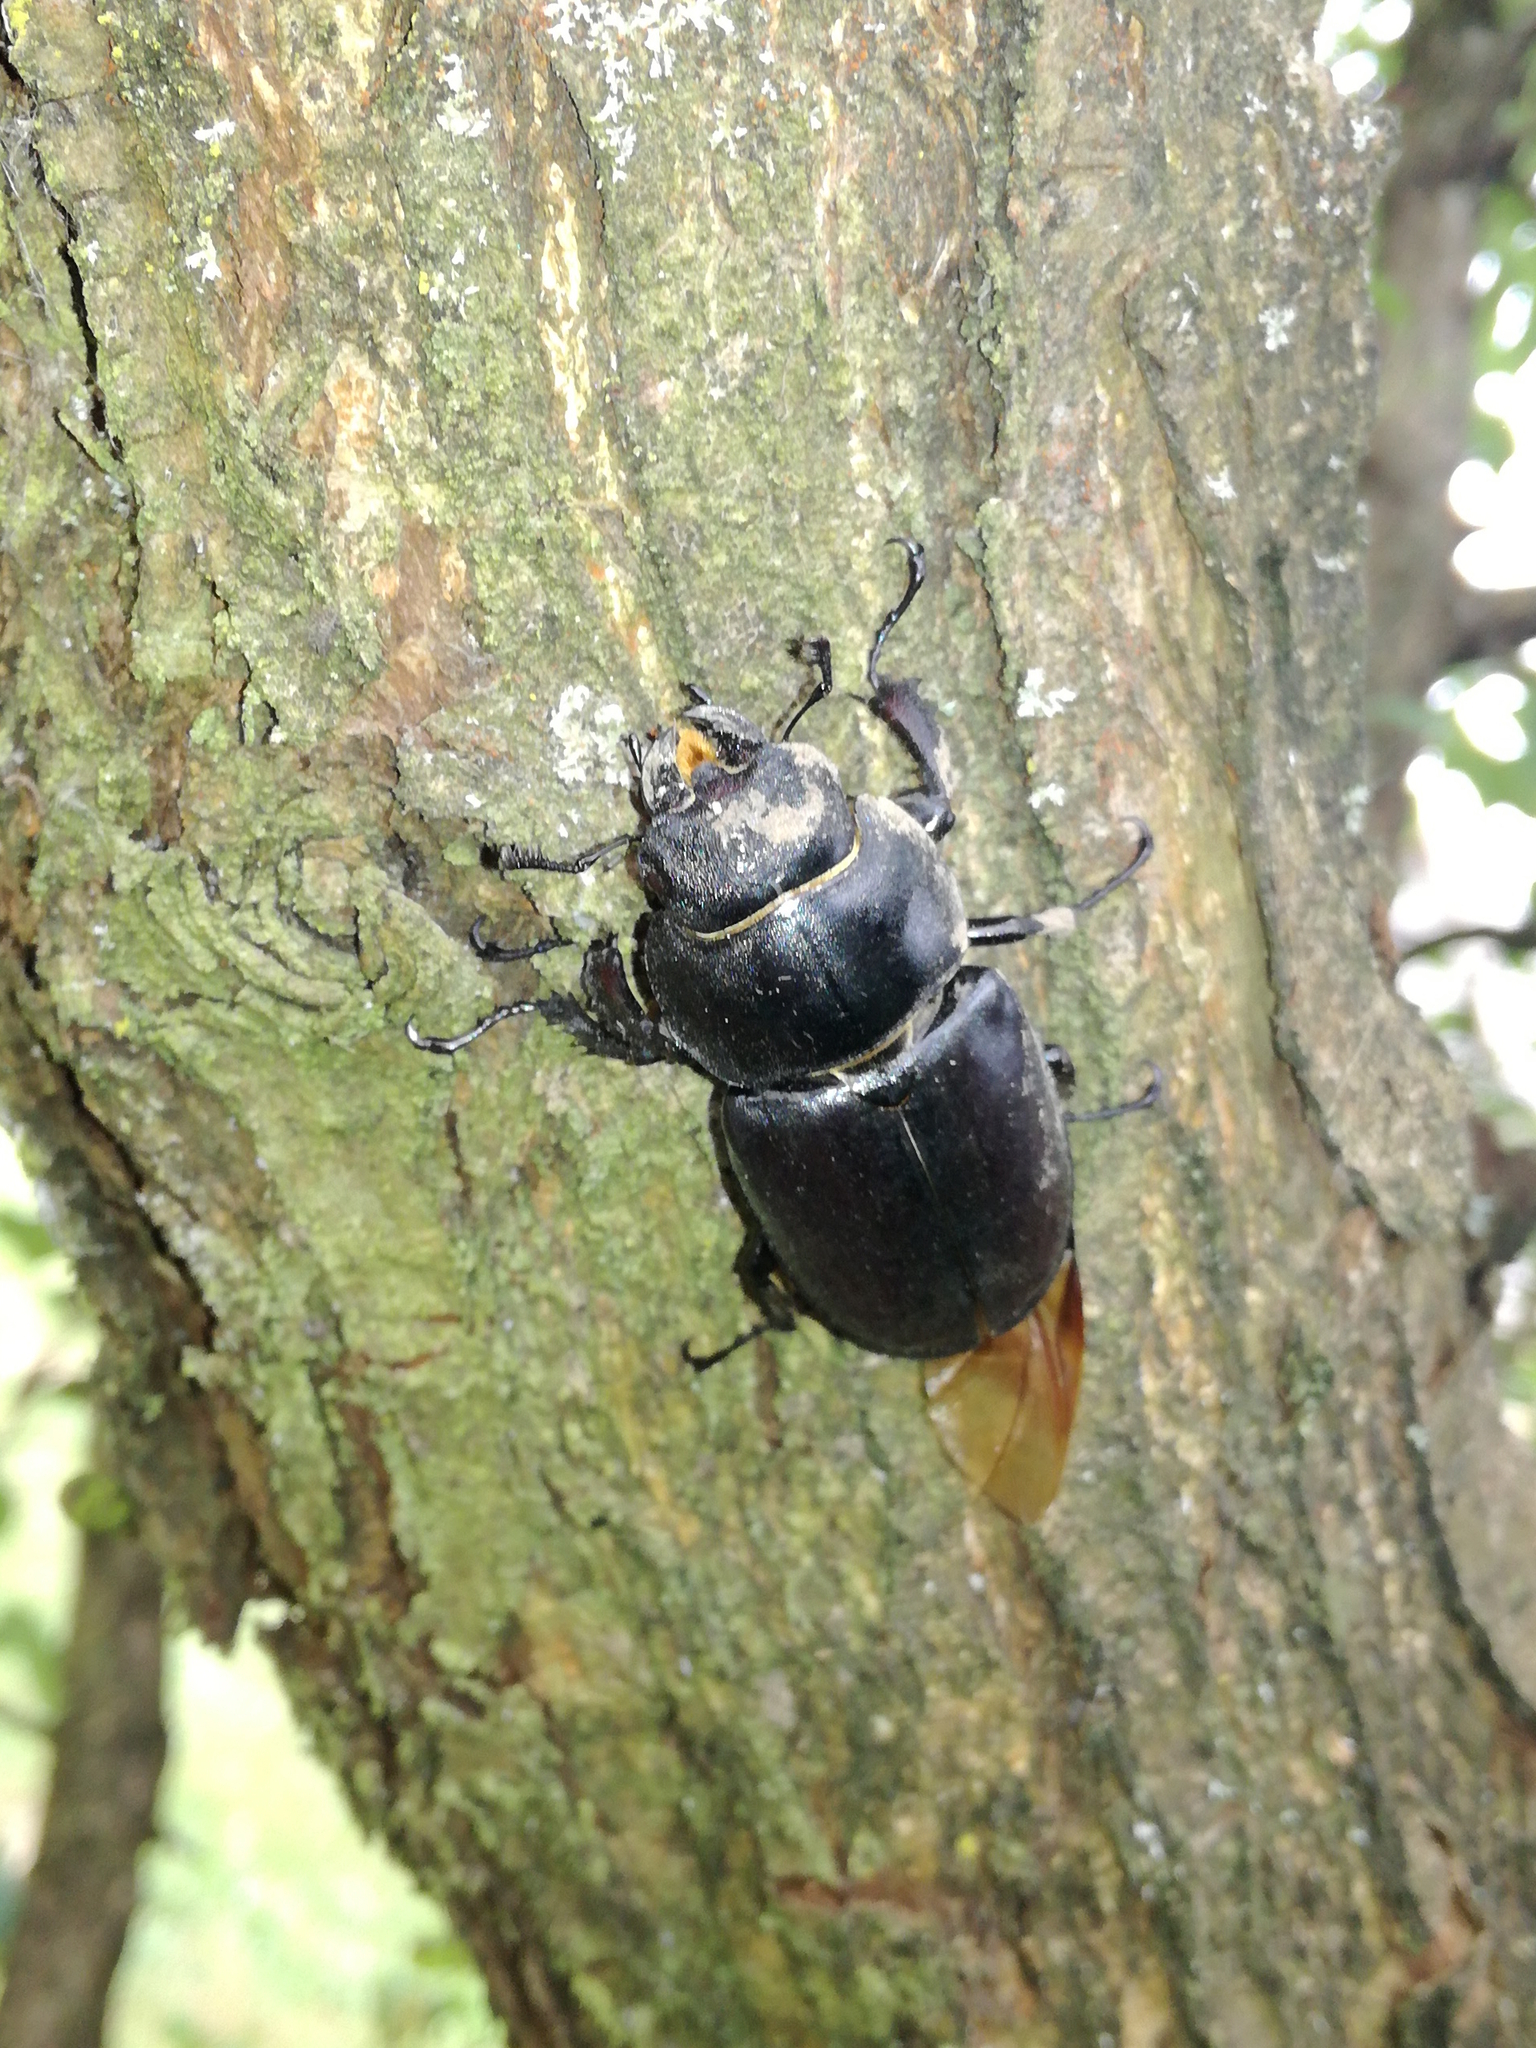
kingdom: Animalia
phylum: Arthropoda
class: Insecta
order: Coleoptera
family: Lucanidae
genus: Lucanus
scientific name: Lucanus cervus
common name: Stag beetle
